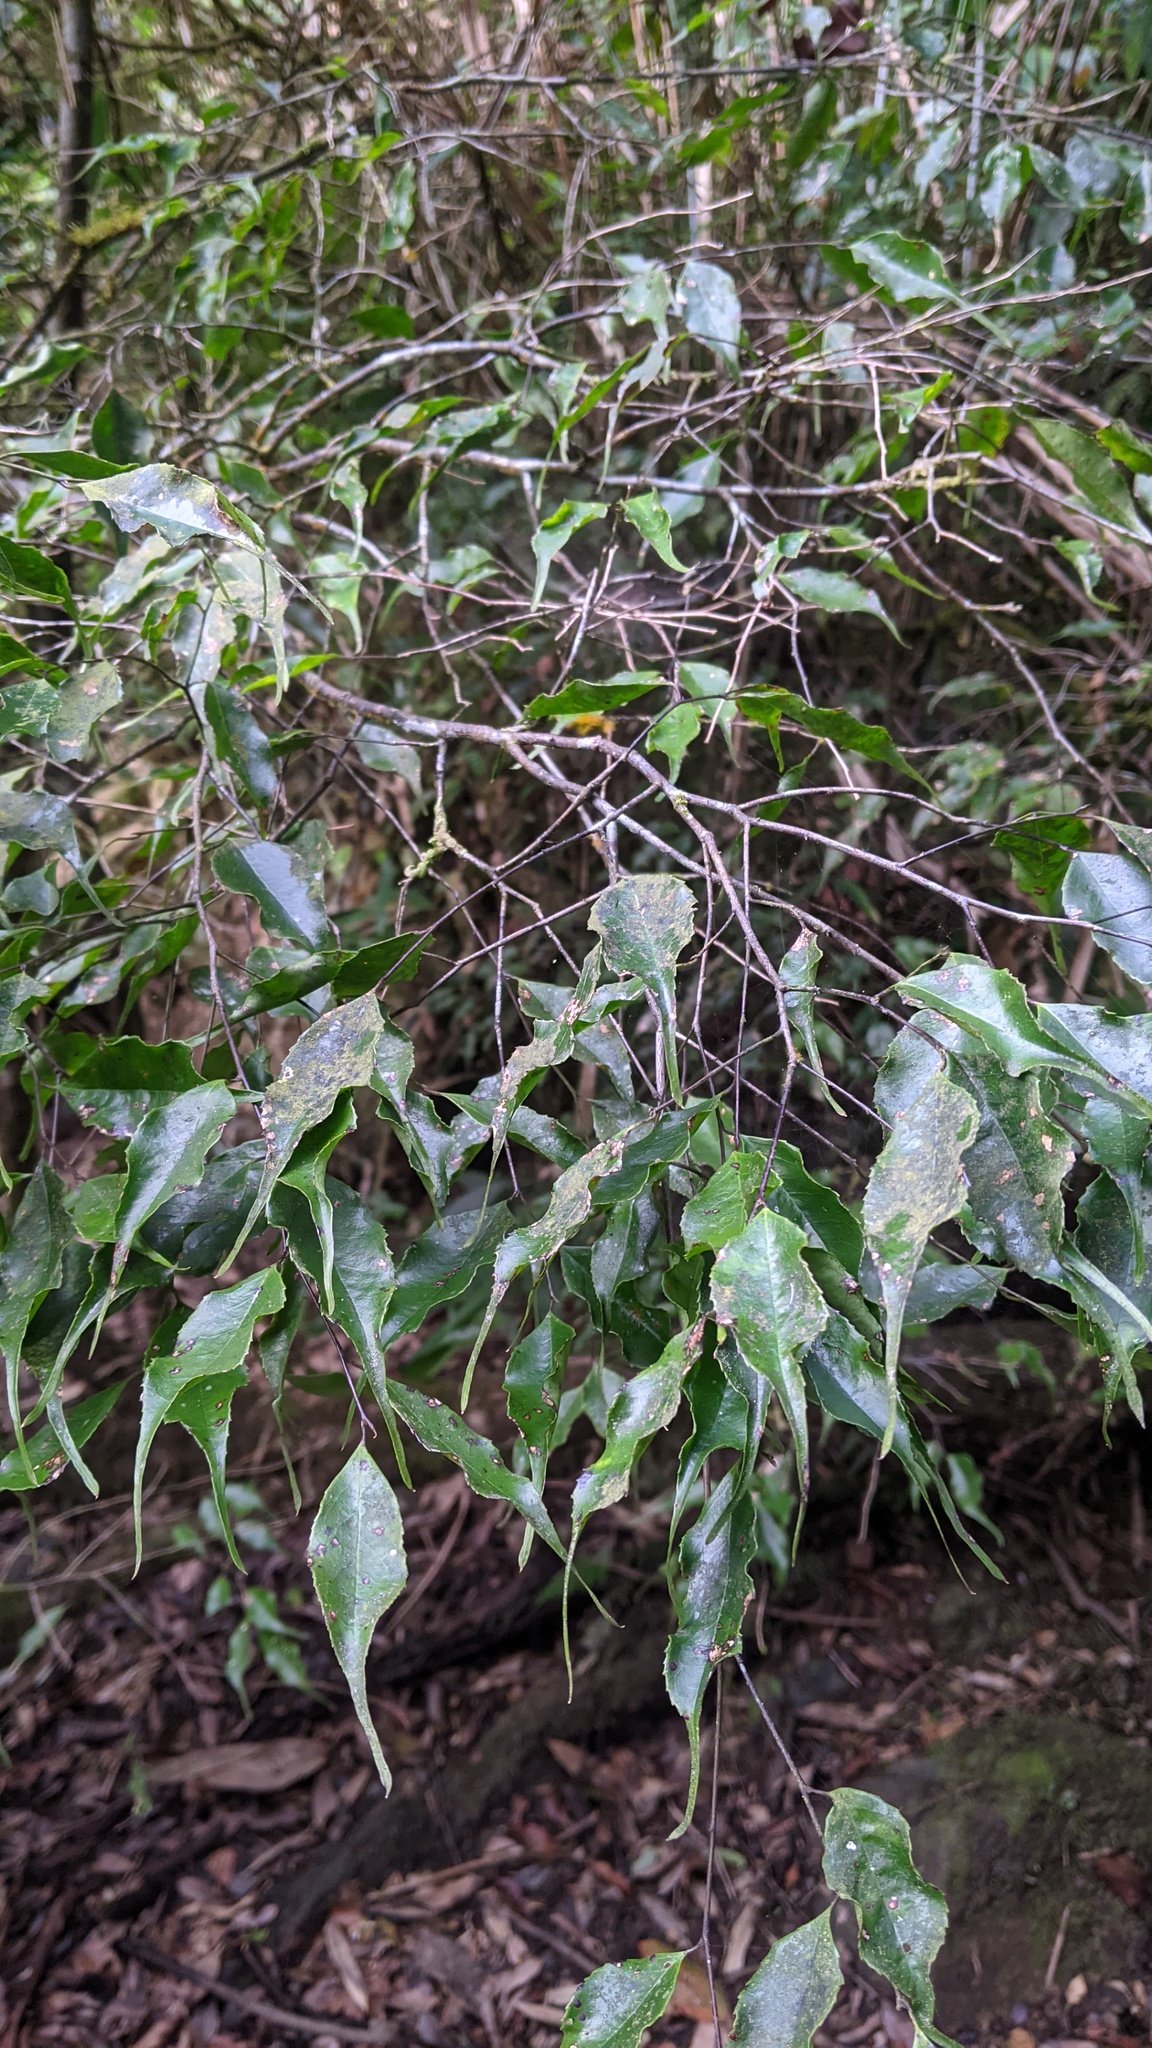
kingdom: Plantae
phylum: Tracheophyta
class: Magnoliopsida
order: Ericales
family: Symplocaceae
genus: Symplocos
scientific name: Symplocos sumuntia
